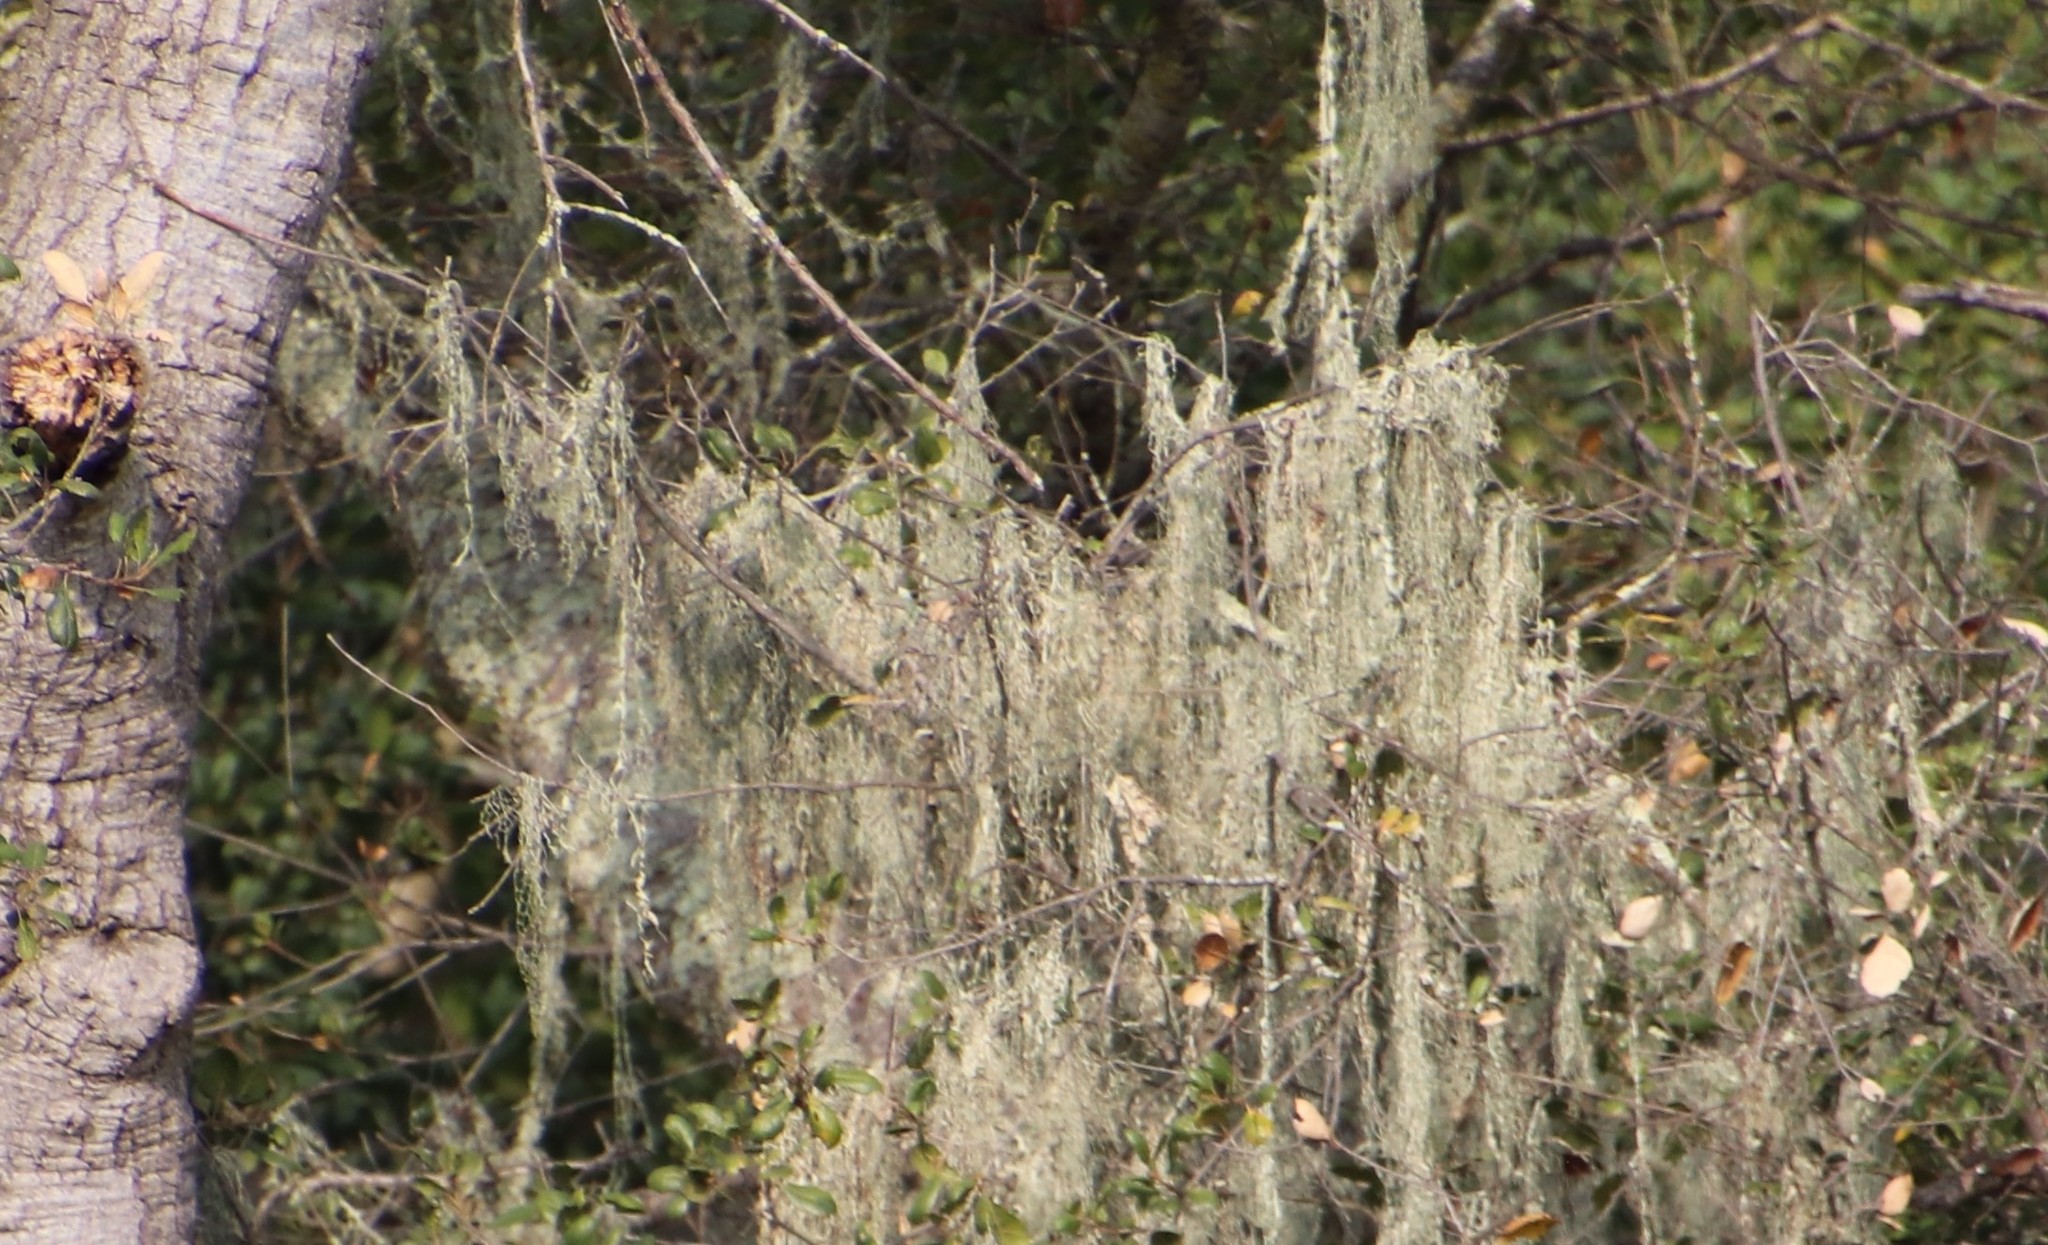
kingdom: Fungi
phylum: Ascomycota
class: Lecanoromycetes
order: Lecanorales
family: Ramalinaceae
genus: Ramalina
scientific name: Ramalina menziesii
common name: Lace lichen
